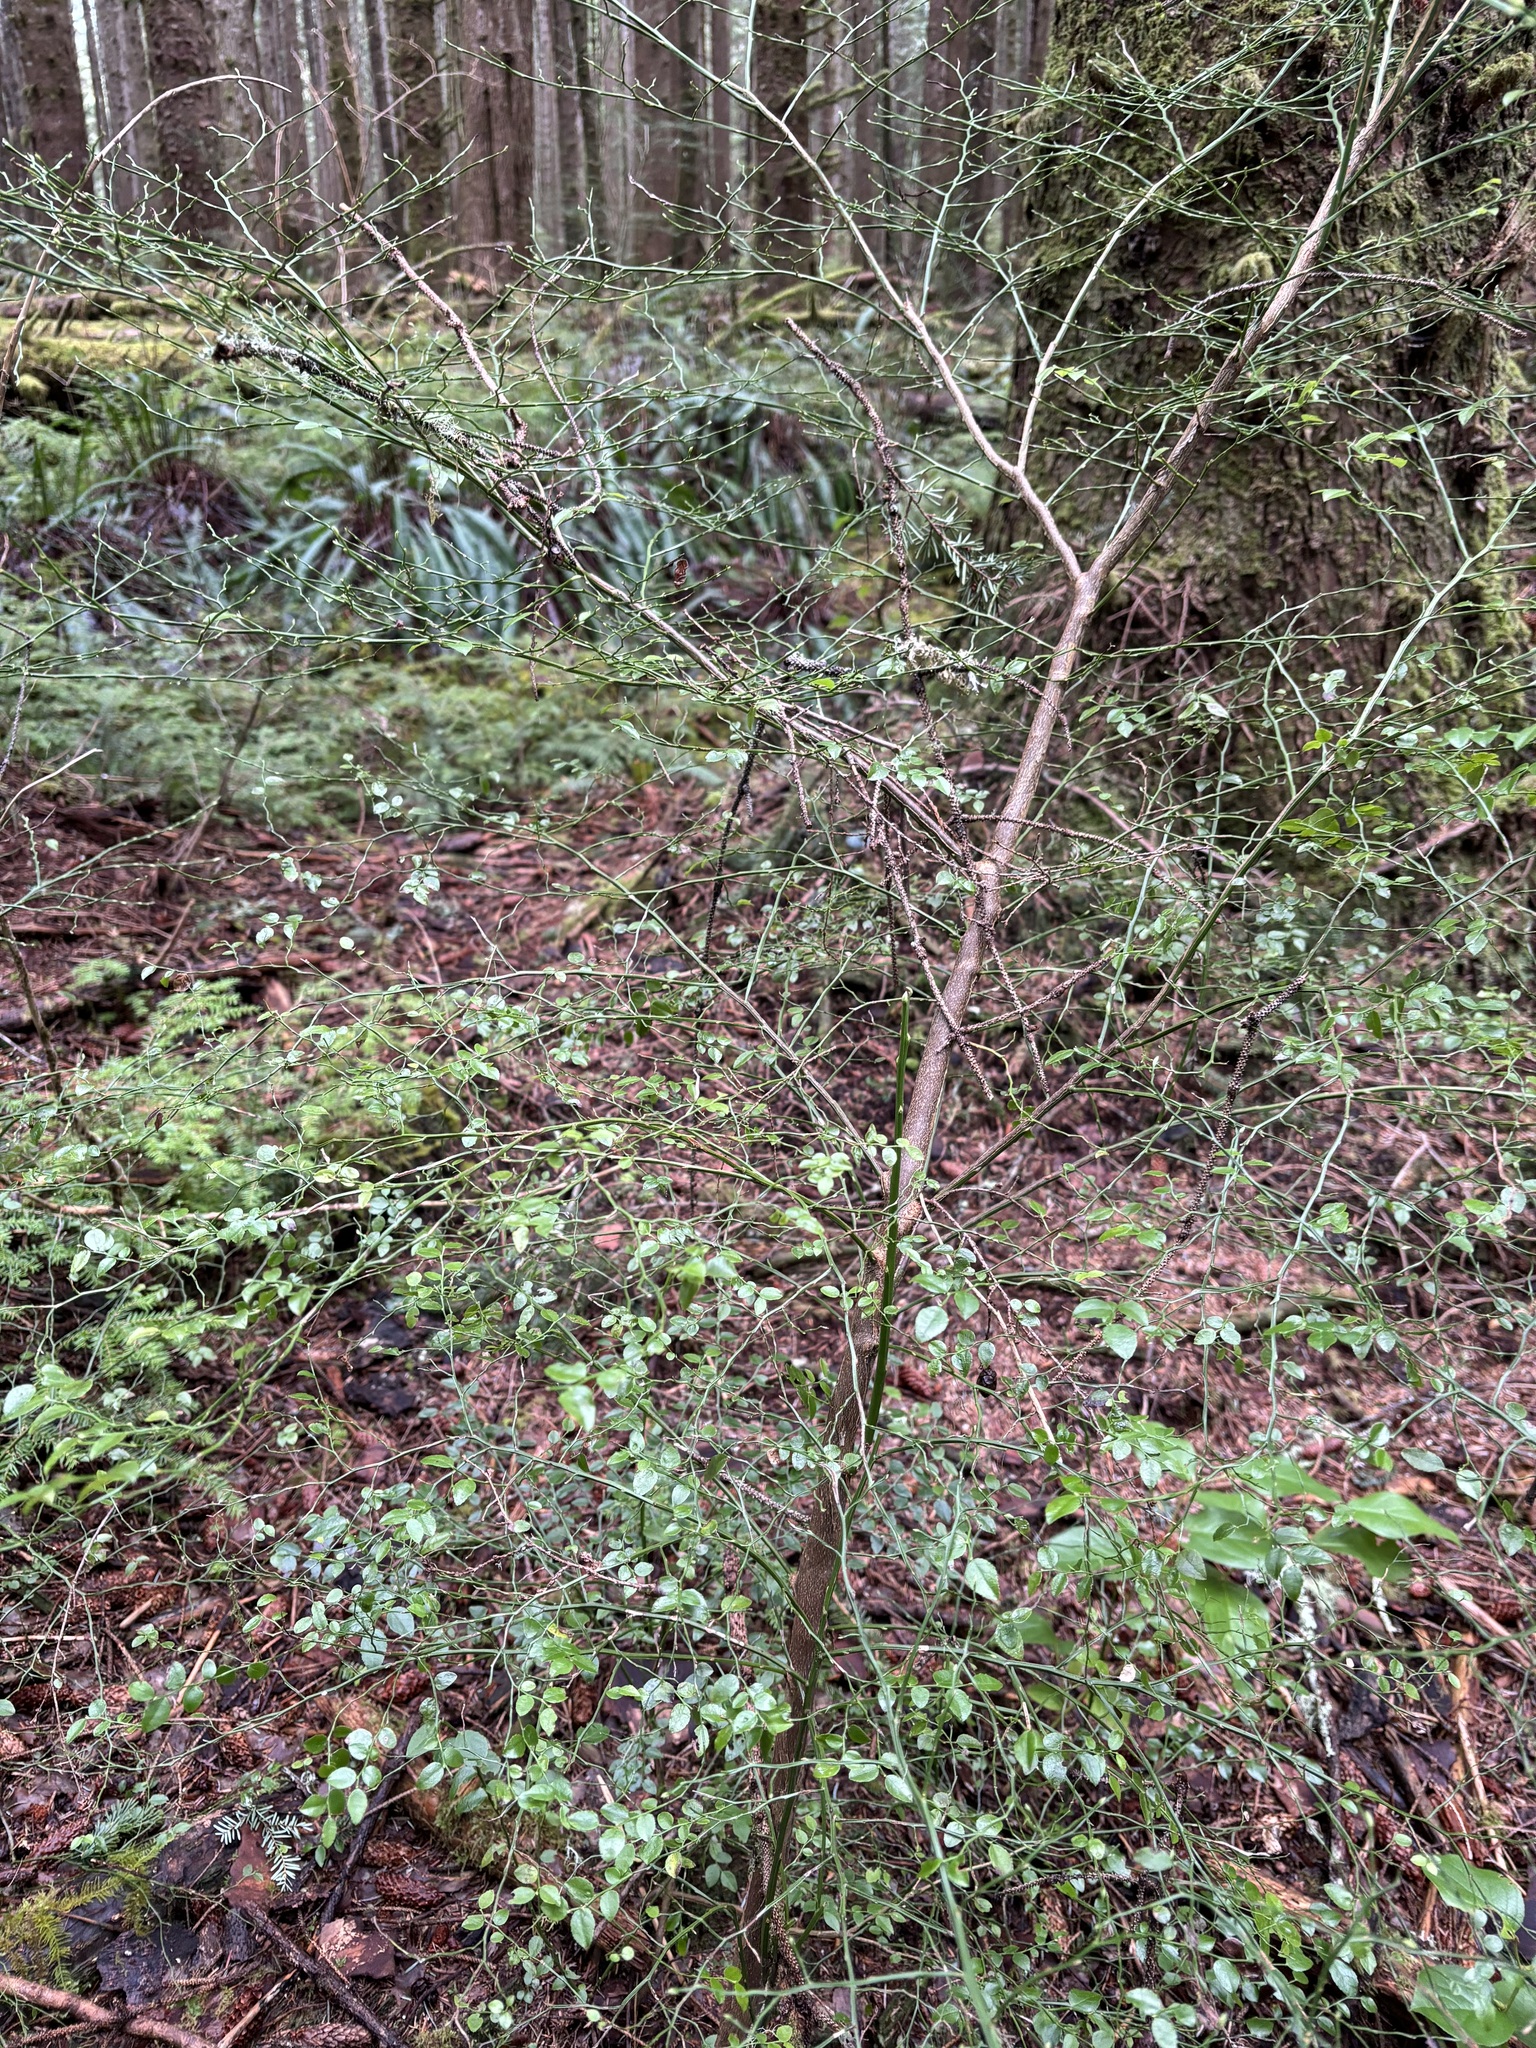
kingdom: Plantae
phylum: Tracheophyta
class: Magnoliopsida
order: Ericales
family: Ericaceae
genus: Vaccinium
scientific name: Vaccinium parvifolium
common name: Red-huckleberry
